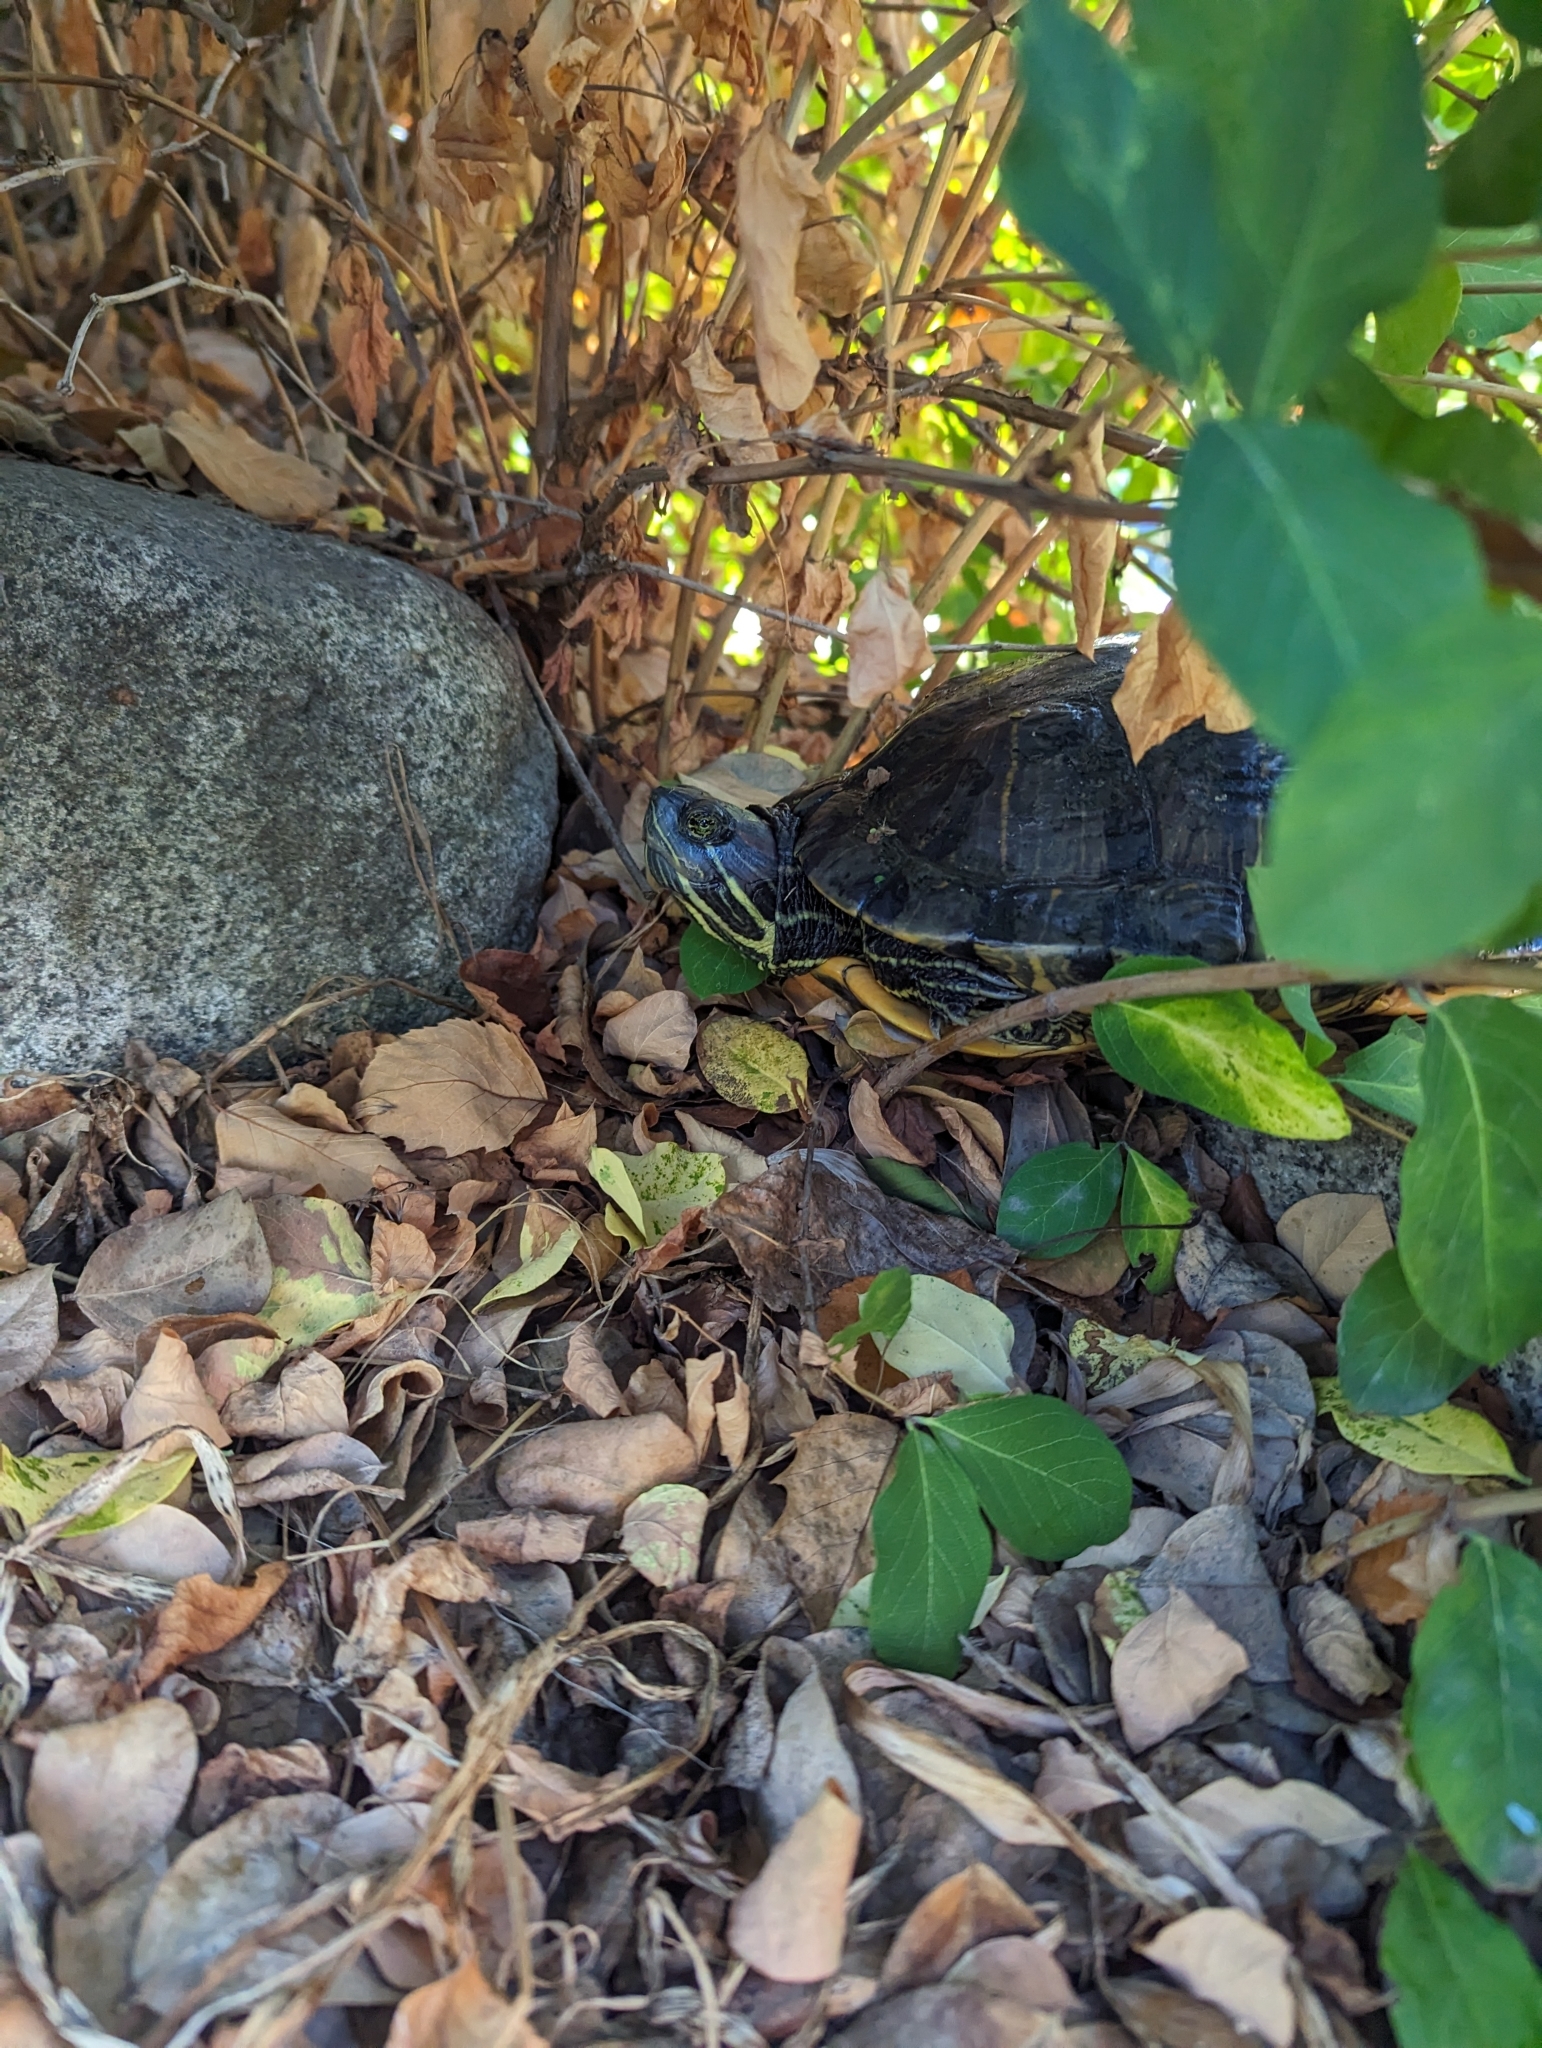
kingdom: Animalia
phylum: Chordata
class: Testudines
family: Emydidae
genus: Trachemys
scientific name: Trachemys scripta
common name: Slider
